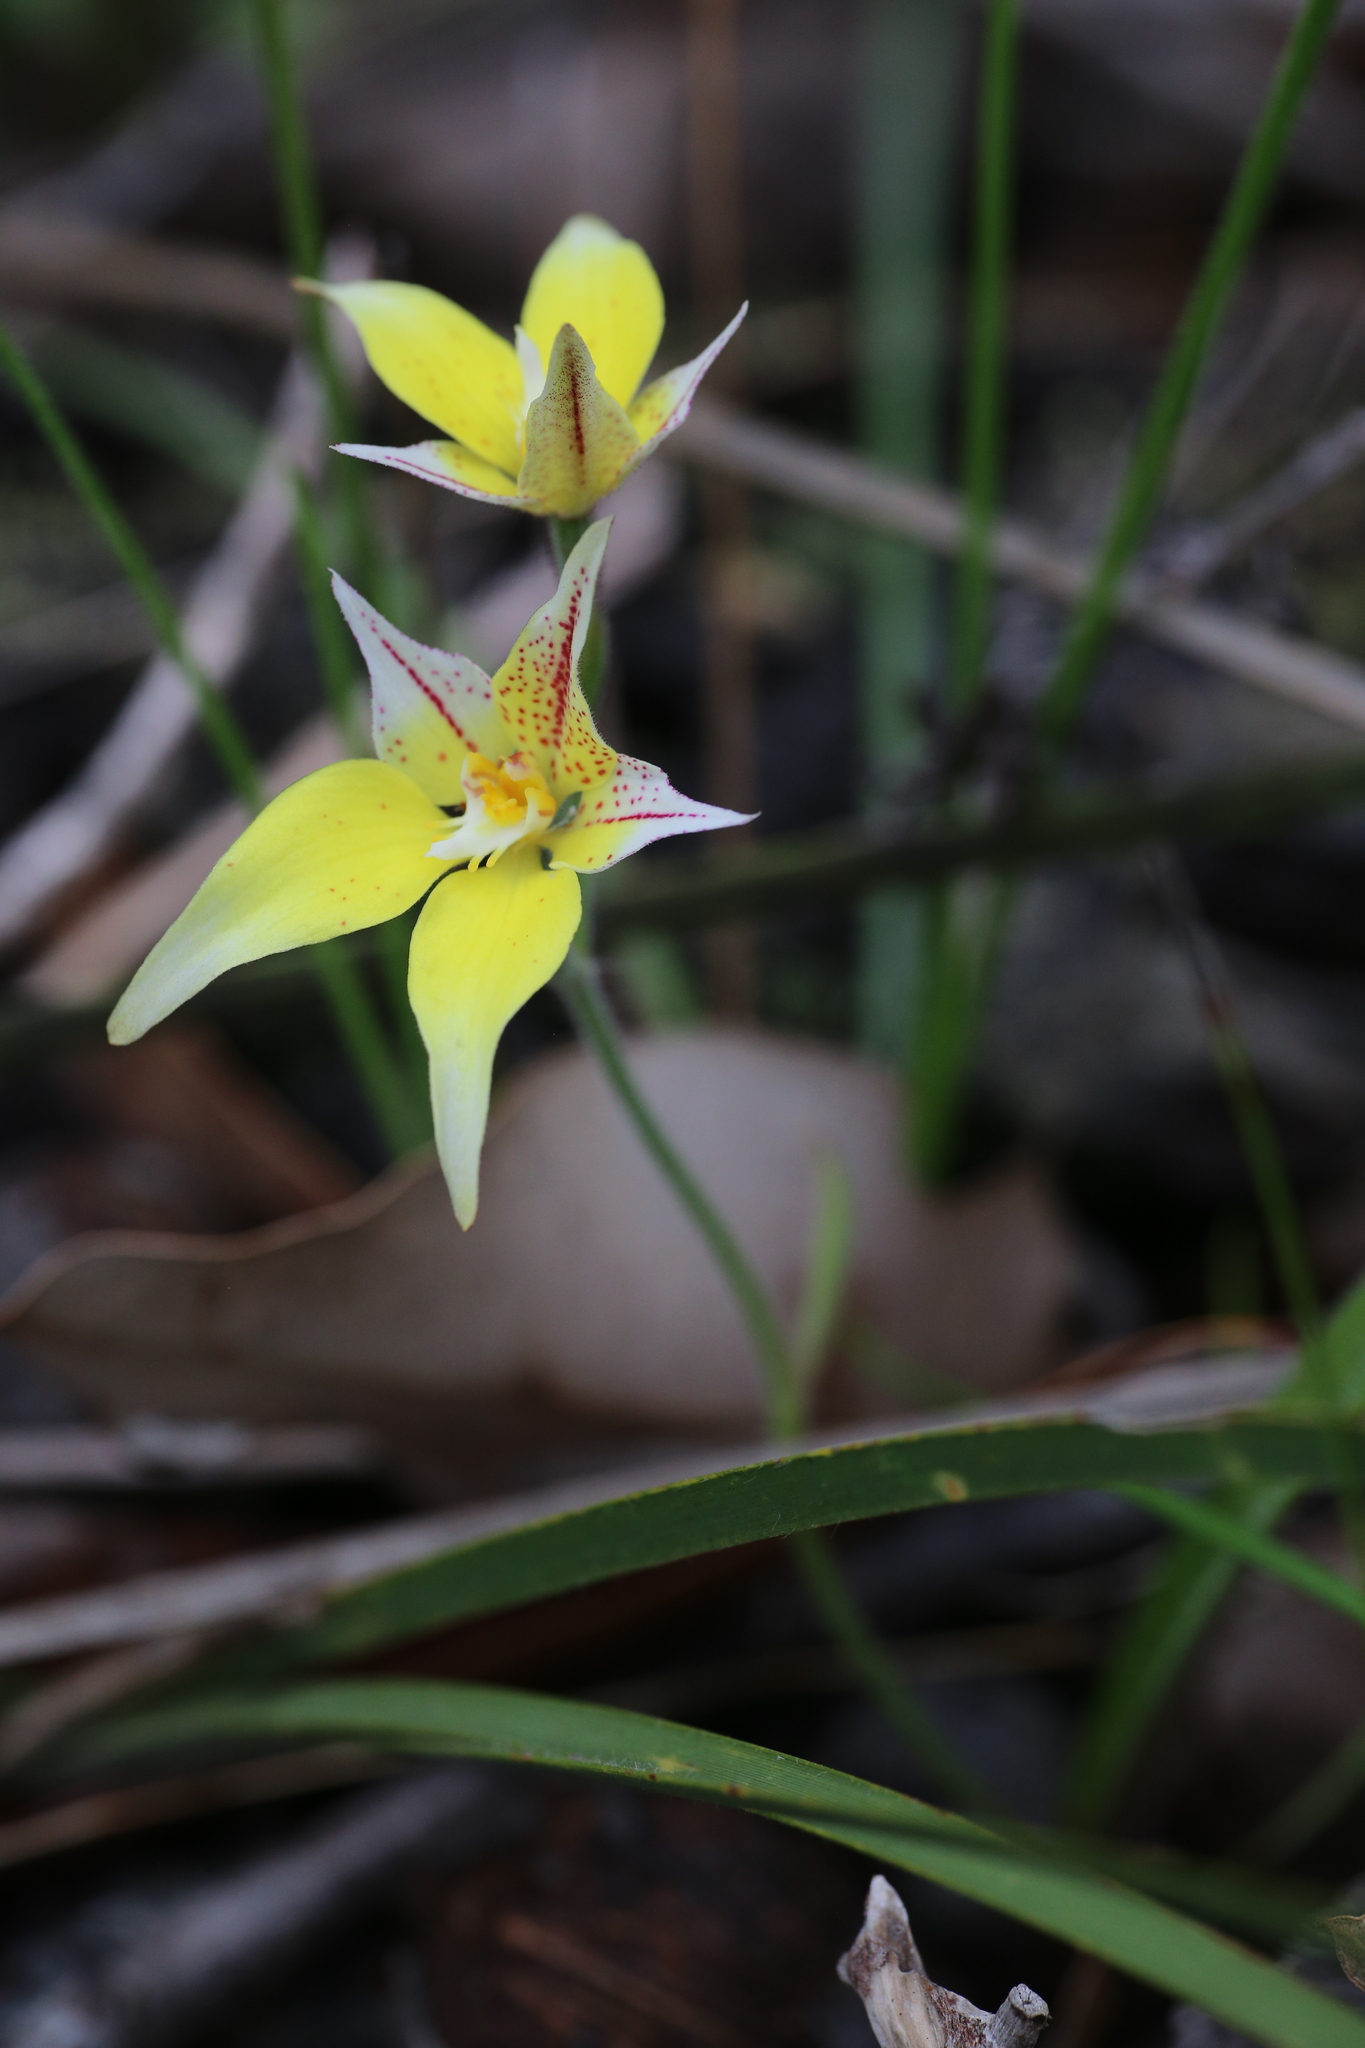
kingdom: Plantae
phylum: Tracheophyta
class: Liliopsida
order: Asparagales
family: Orchidaceae
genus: Caladenia
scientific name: Caladenia flava
